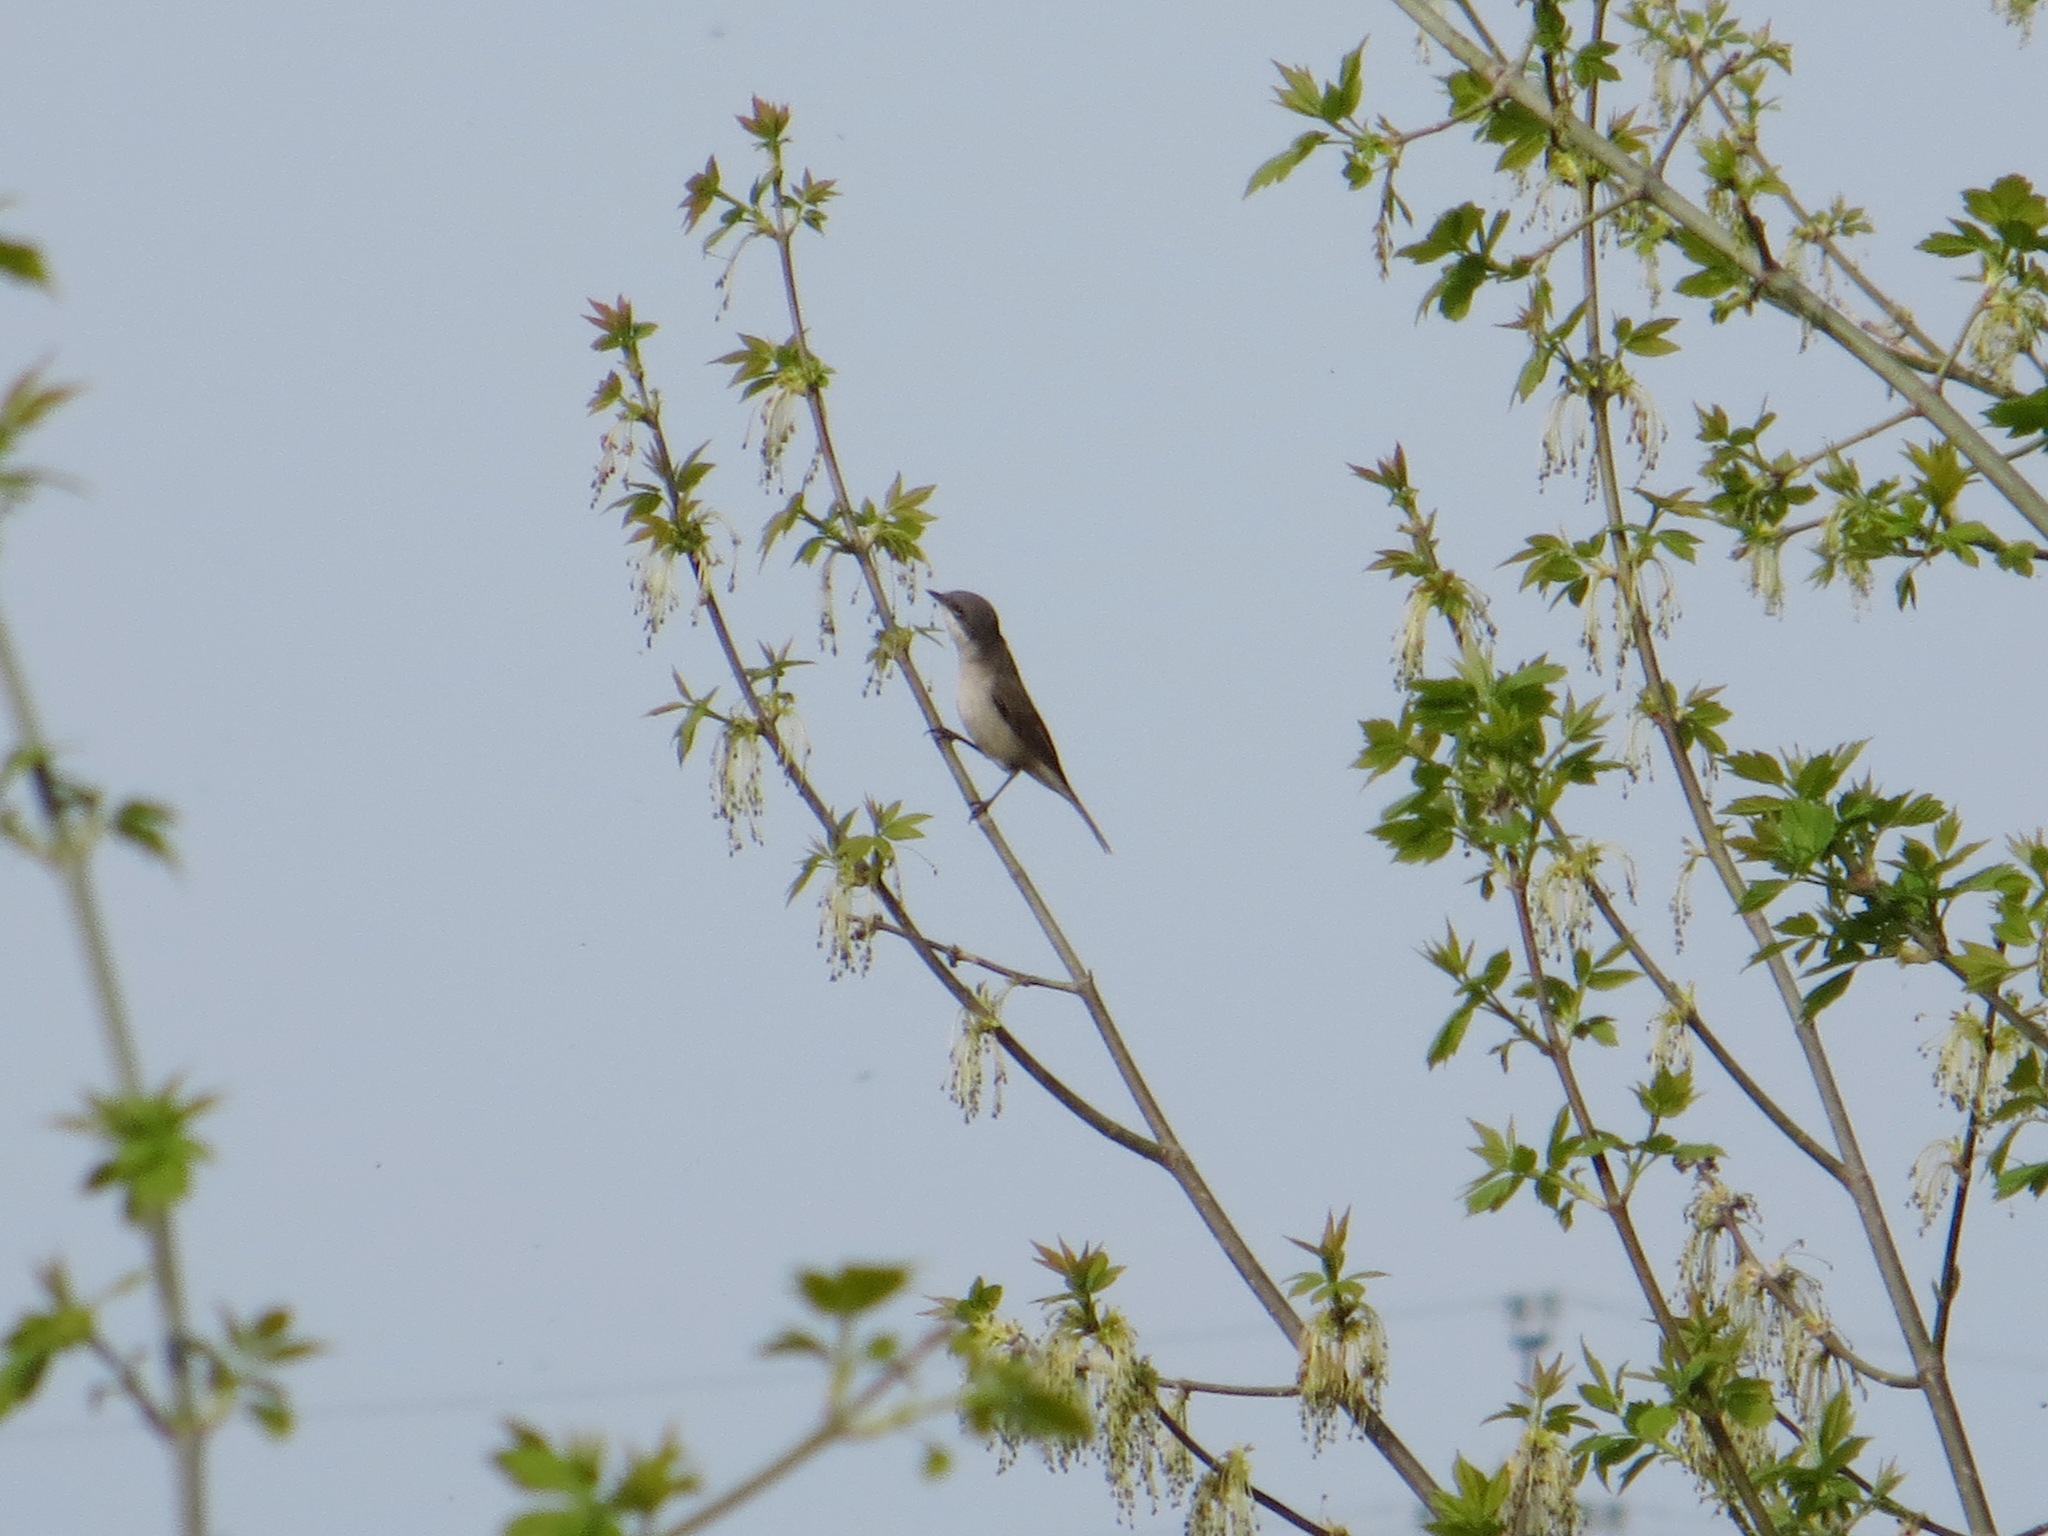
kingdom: Animalia
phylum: Chordata
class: Aves
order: Passeriformes
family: Sylviidae
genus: Sylvia
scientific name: Sylvia curruca
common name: Lesser whitethroat
